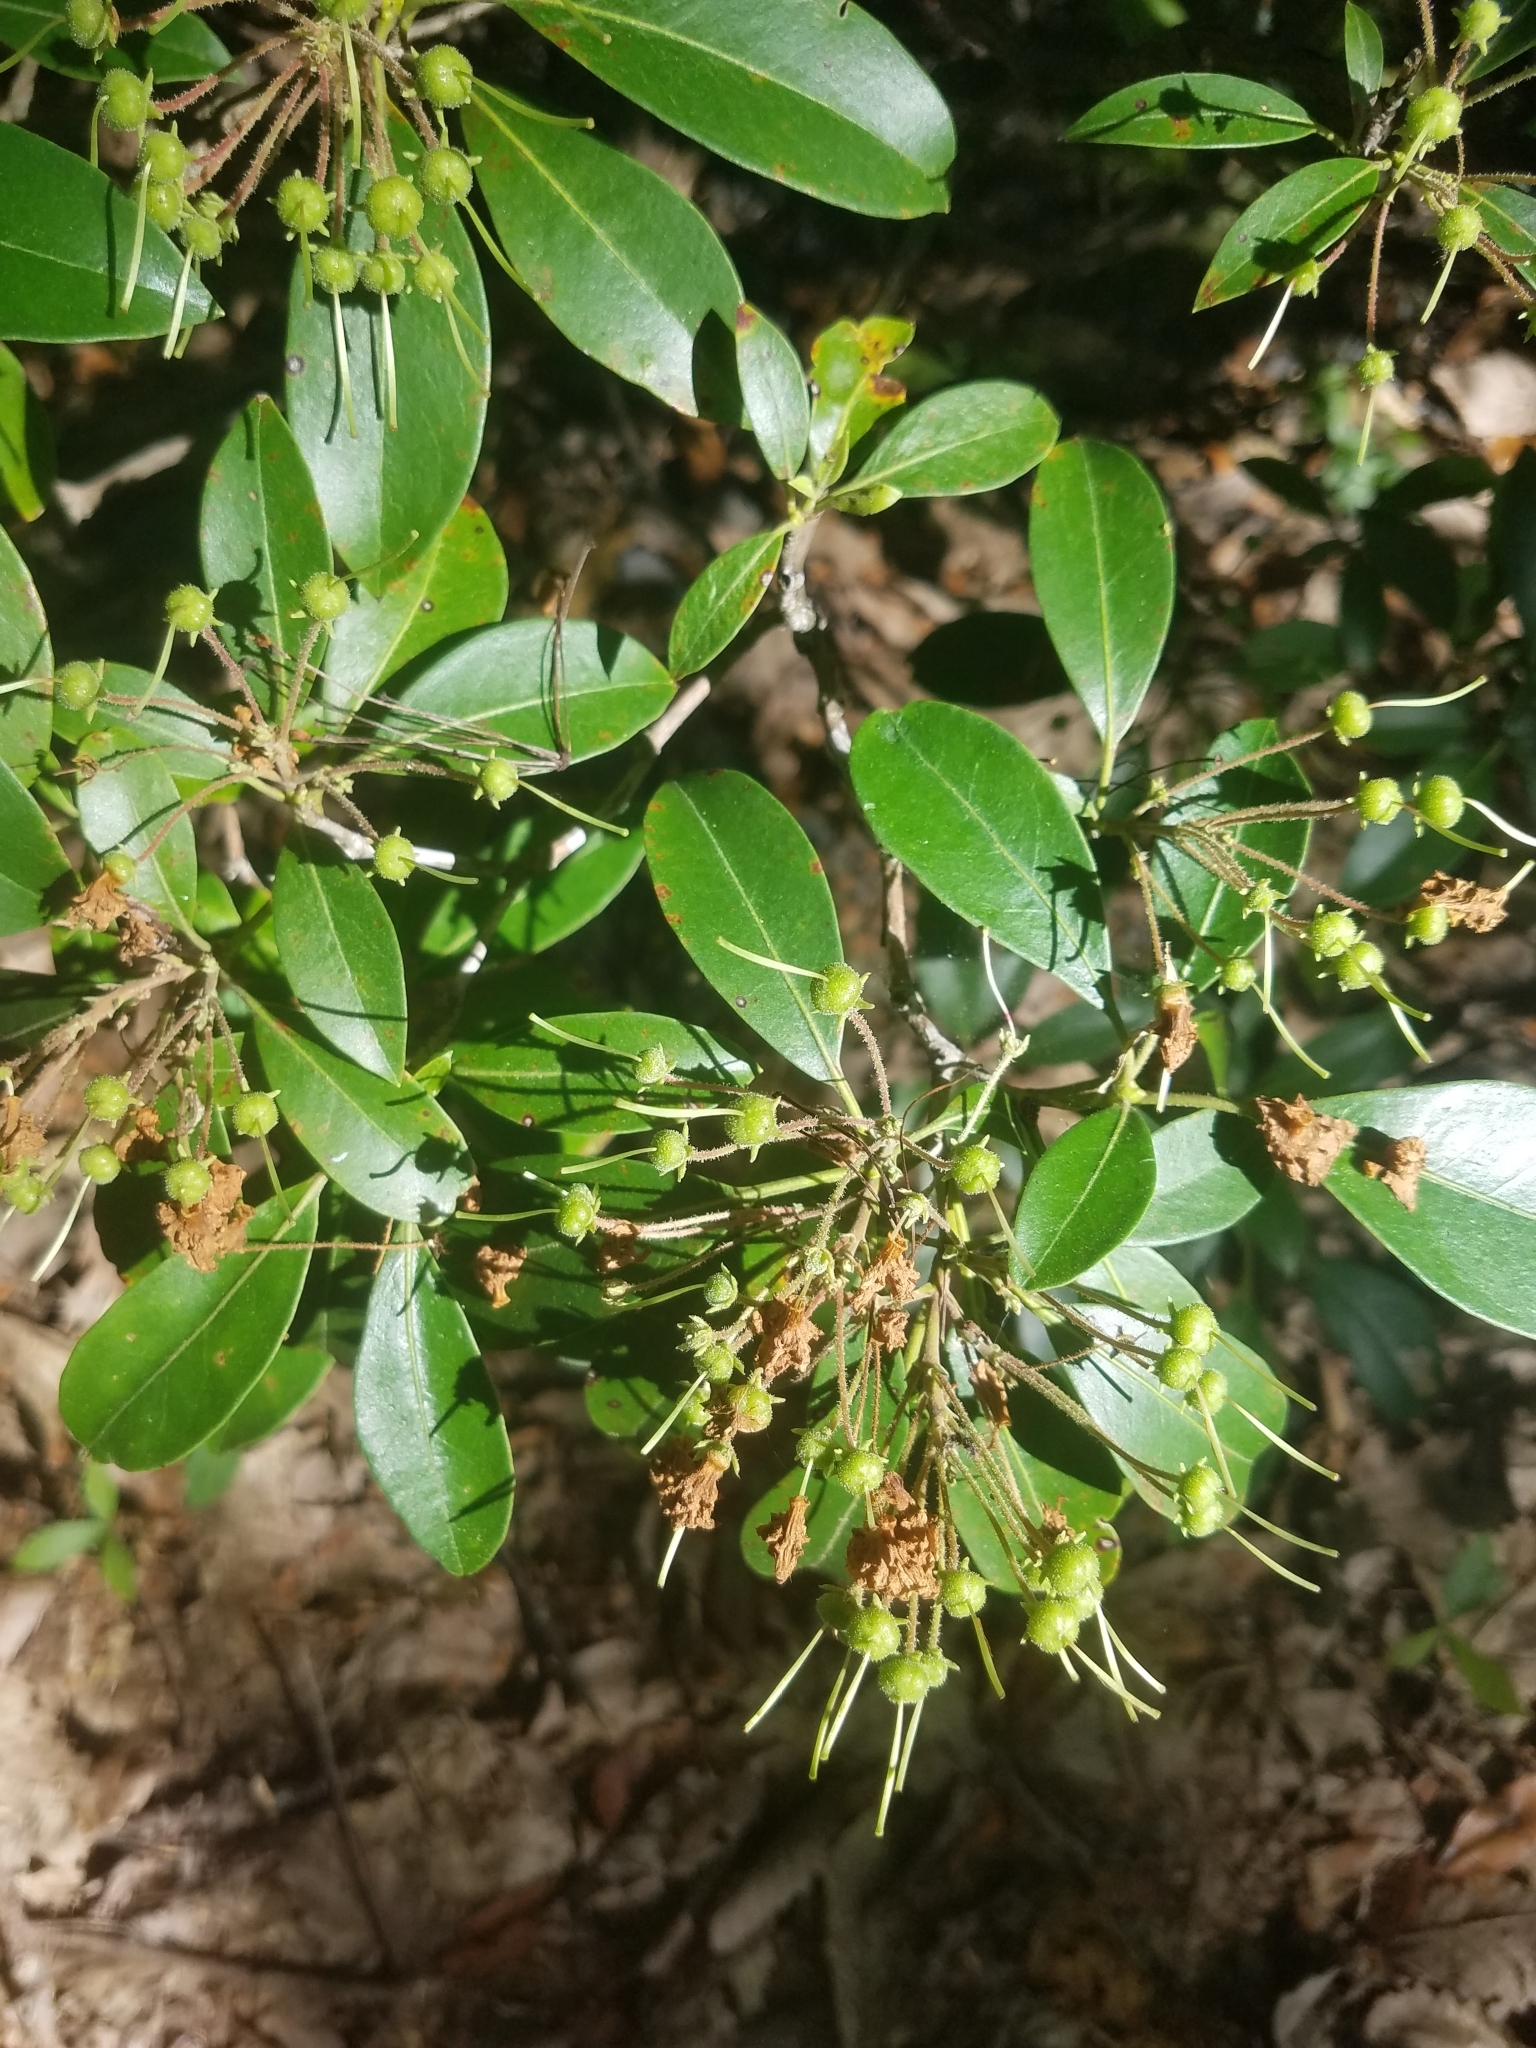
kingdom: Plantae
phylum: Tracheophyta
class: Magnoliopsida
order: Ericales
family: Ericaceae
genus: Kalmia
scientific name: Kalmia latifolia
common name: Mountain-laurel
